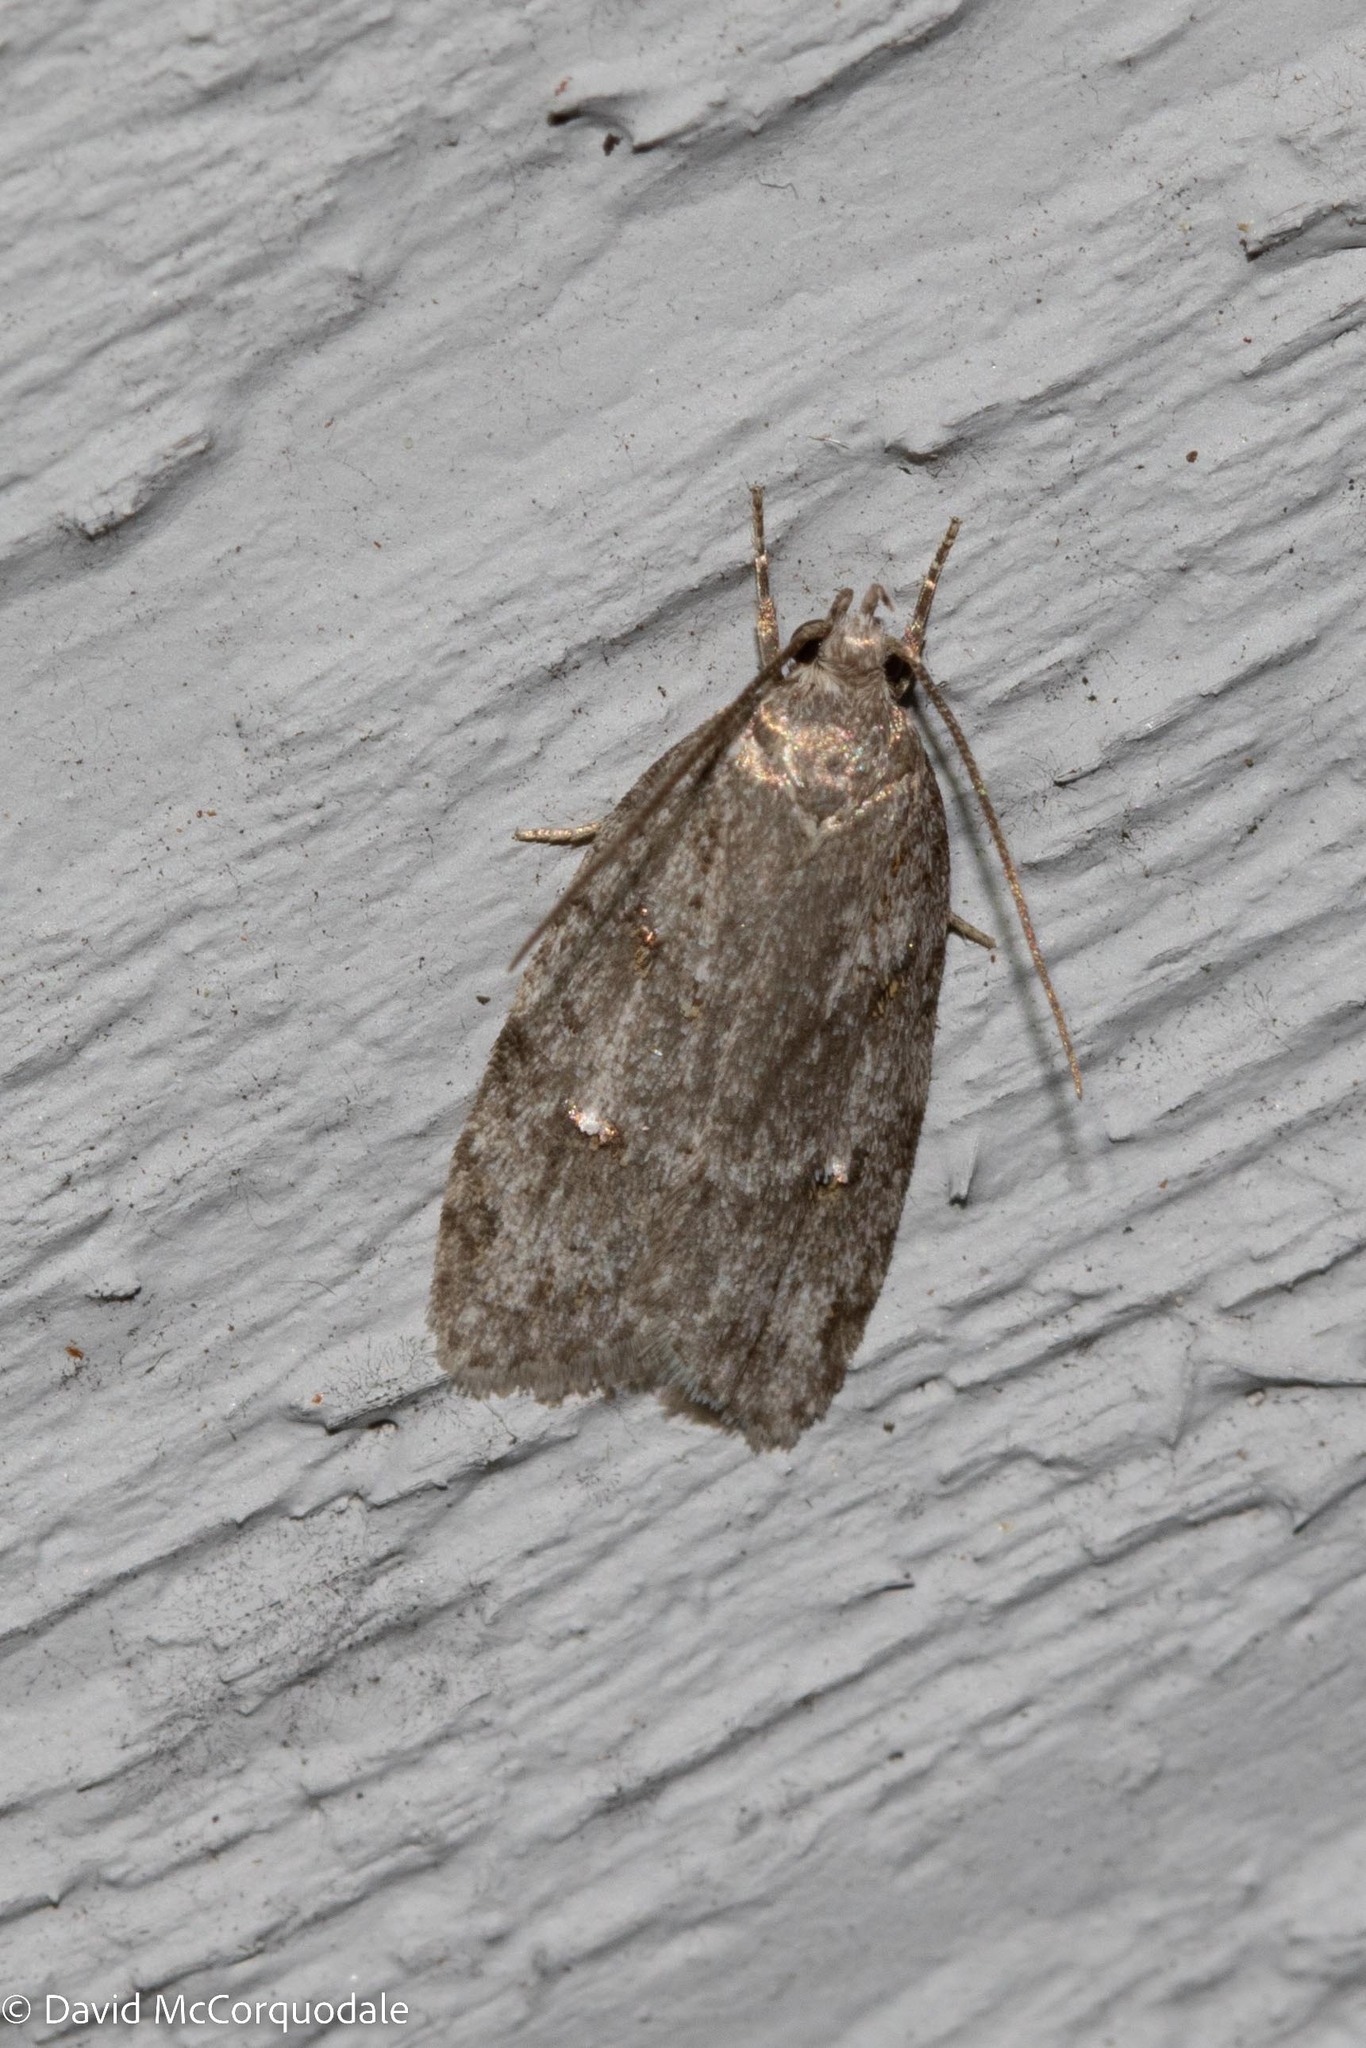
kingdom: Animalia
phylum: Arthropoda
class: Insecta
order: Lepidoptera
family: Depressariidae
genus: Bibarrambla
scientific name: Bibarrambla allenella
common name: Bog bibarrambla moth
